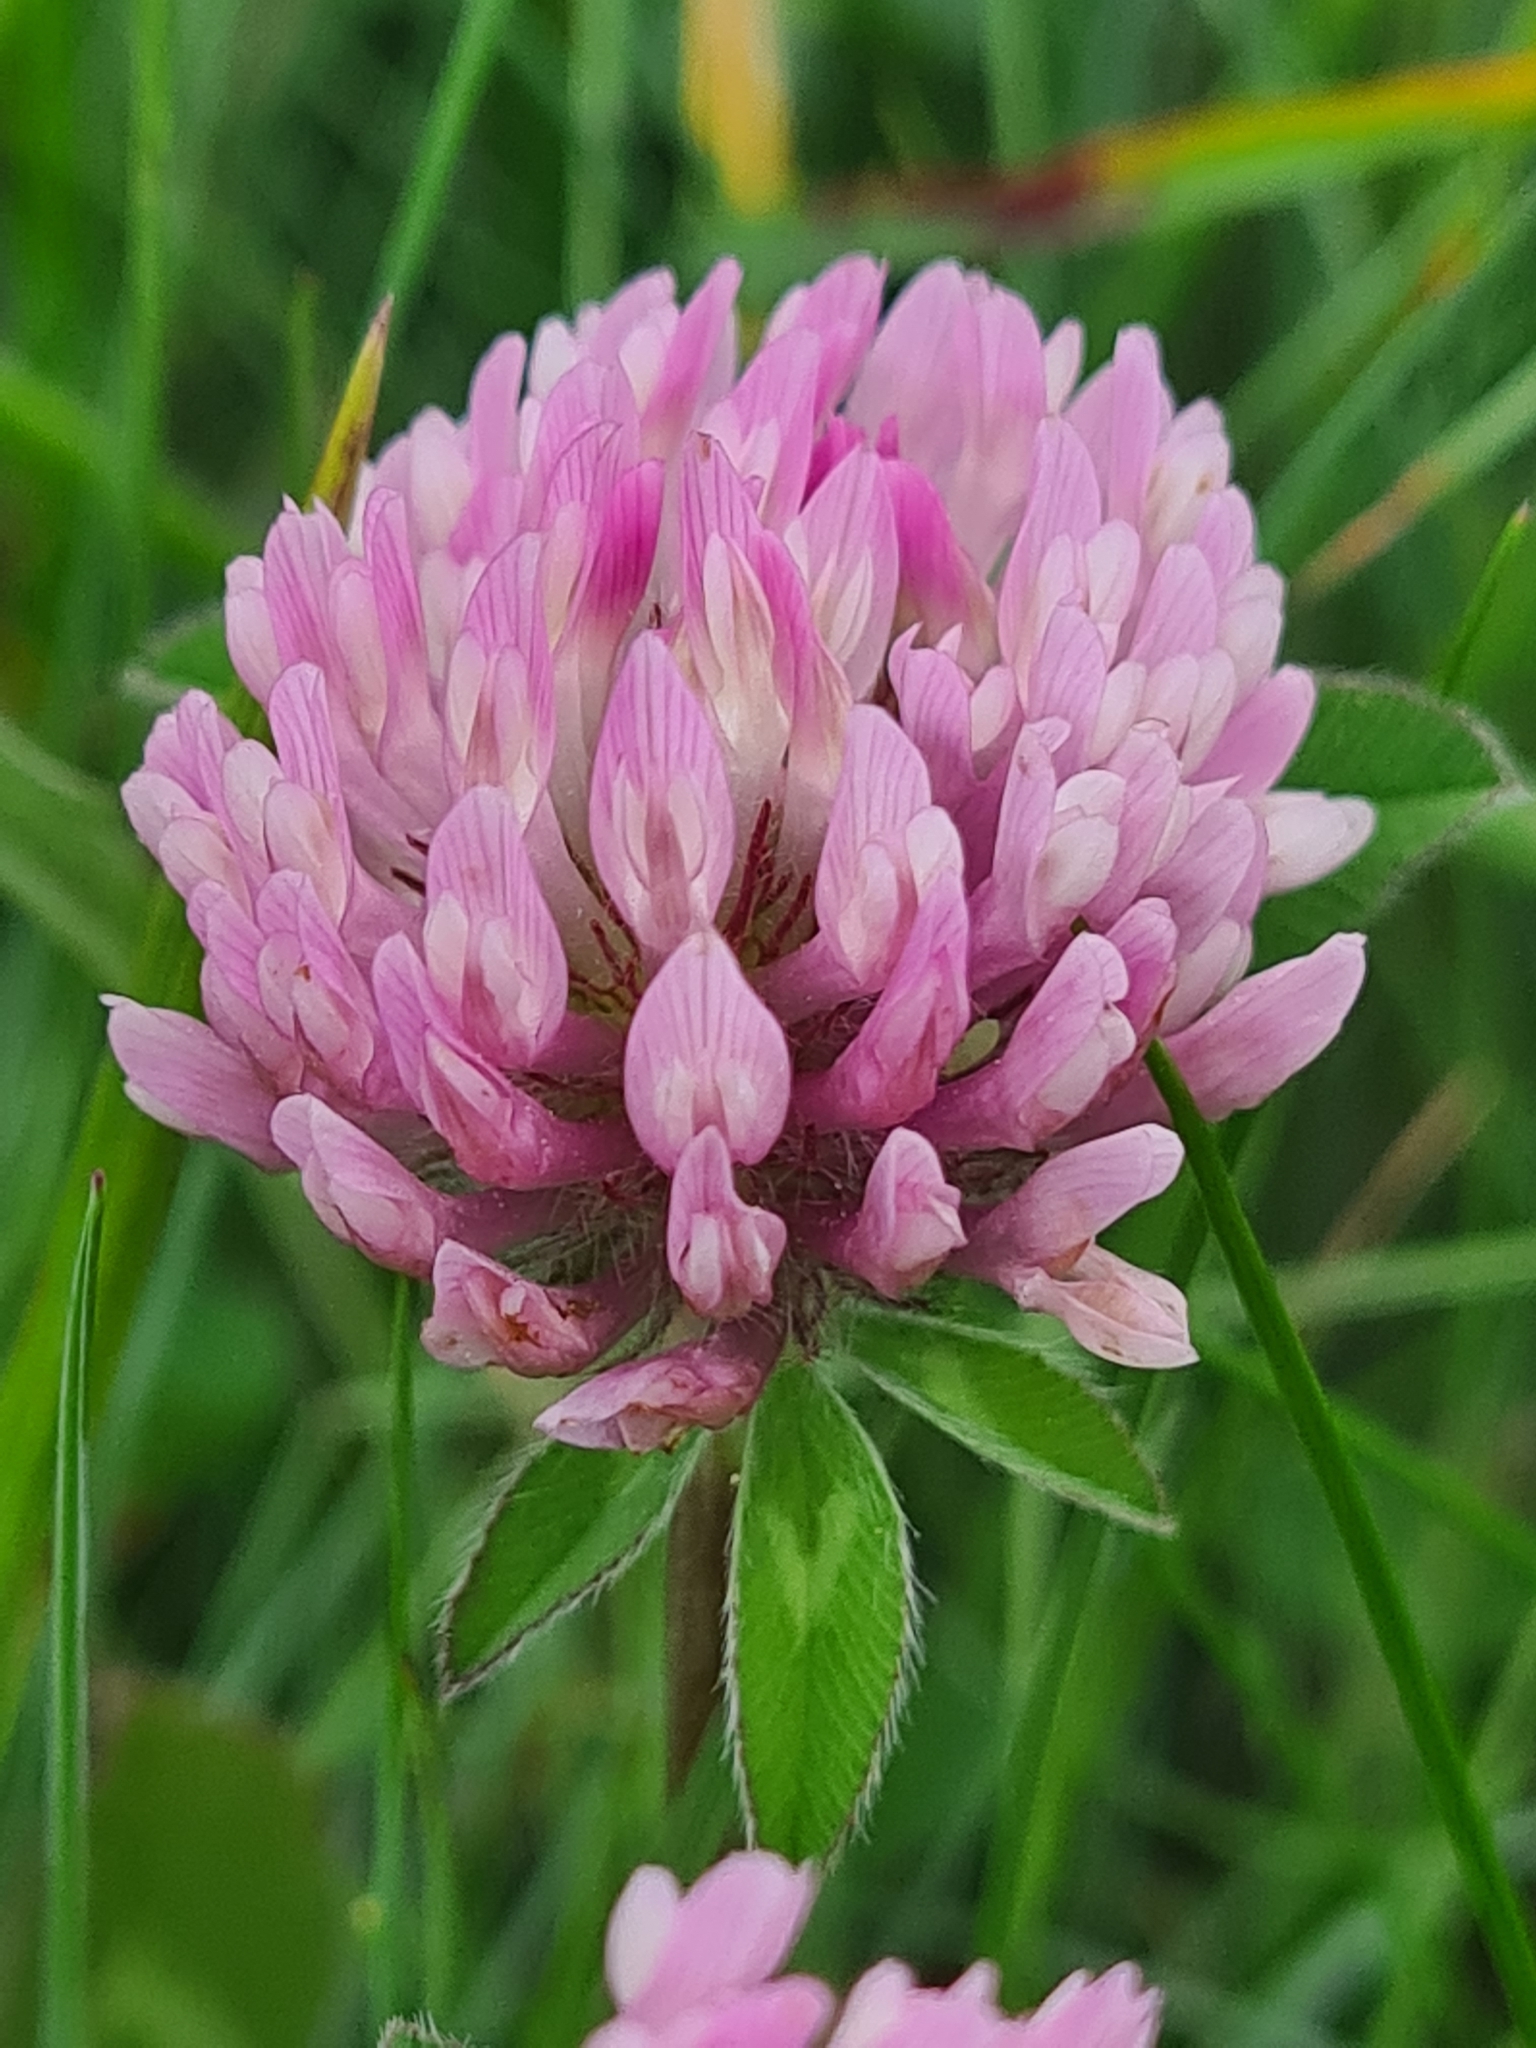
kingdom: Plantae
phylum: Tracheophyta
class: Magnoliopsida
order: Fabales
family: Fabaceae
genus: Trifolium
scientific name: Trifolium pratense
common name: Red clover
